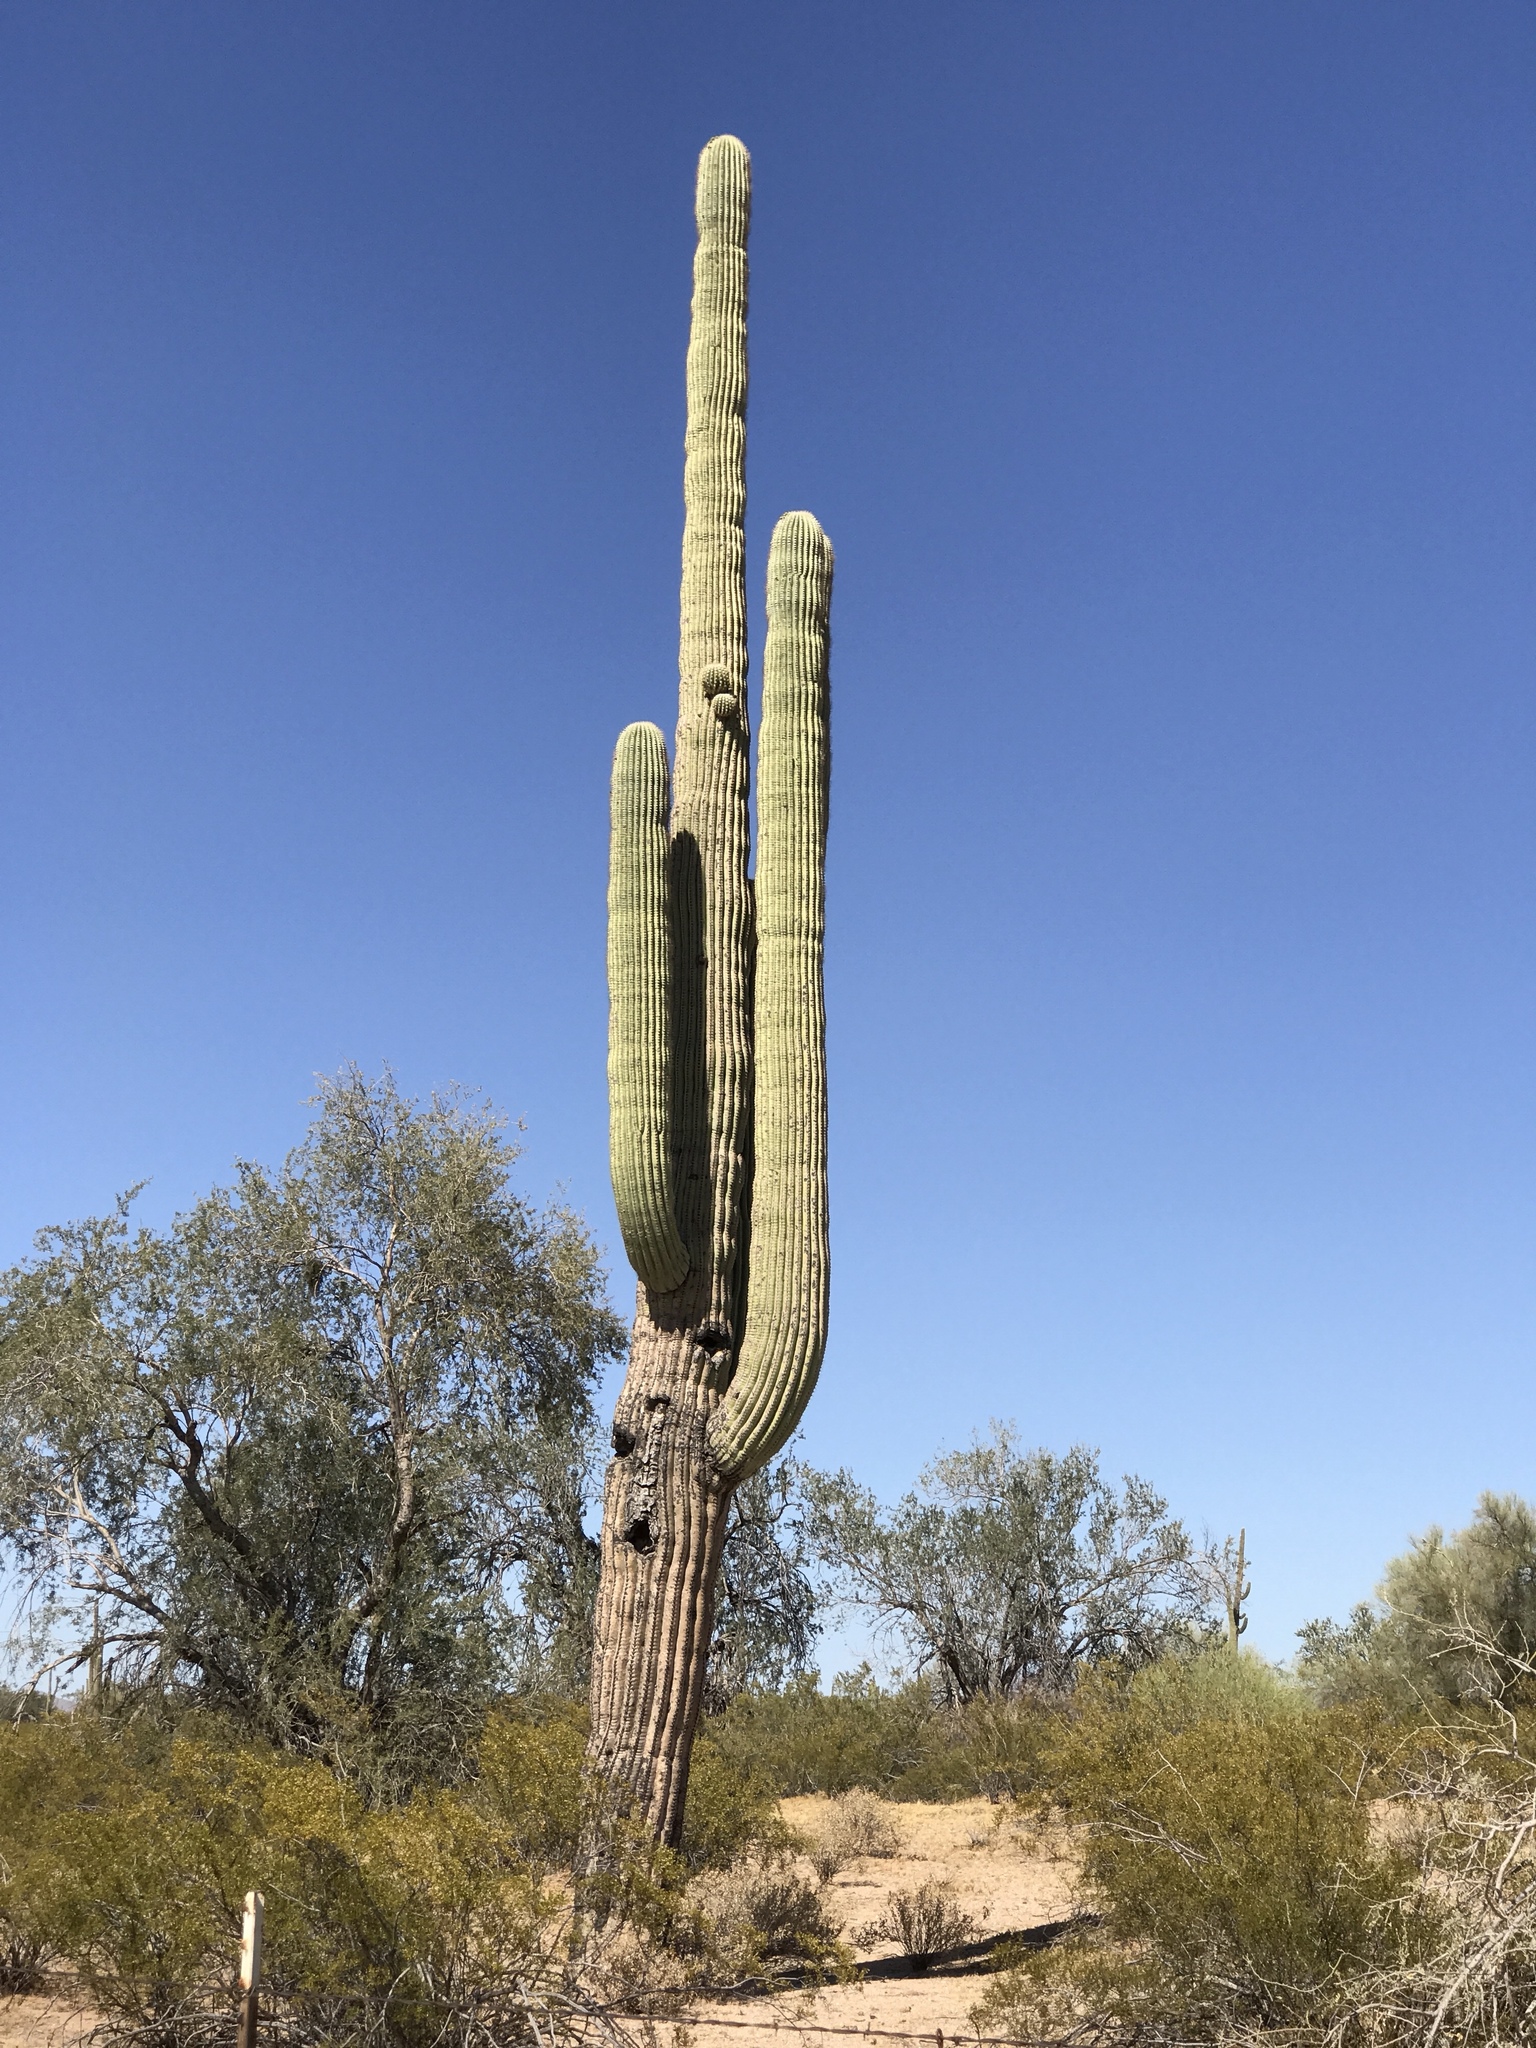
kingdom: Plantae
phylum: Tracheophyta
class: Magnoliopsida
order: Caryophyllales
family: Cactaceae
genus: Carnegiea
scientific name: Carnegiea gigantea
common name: Saguaro
